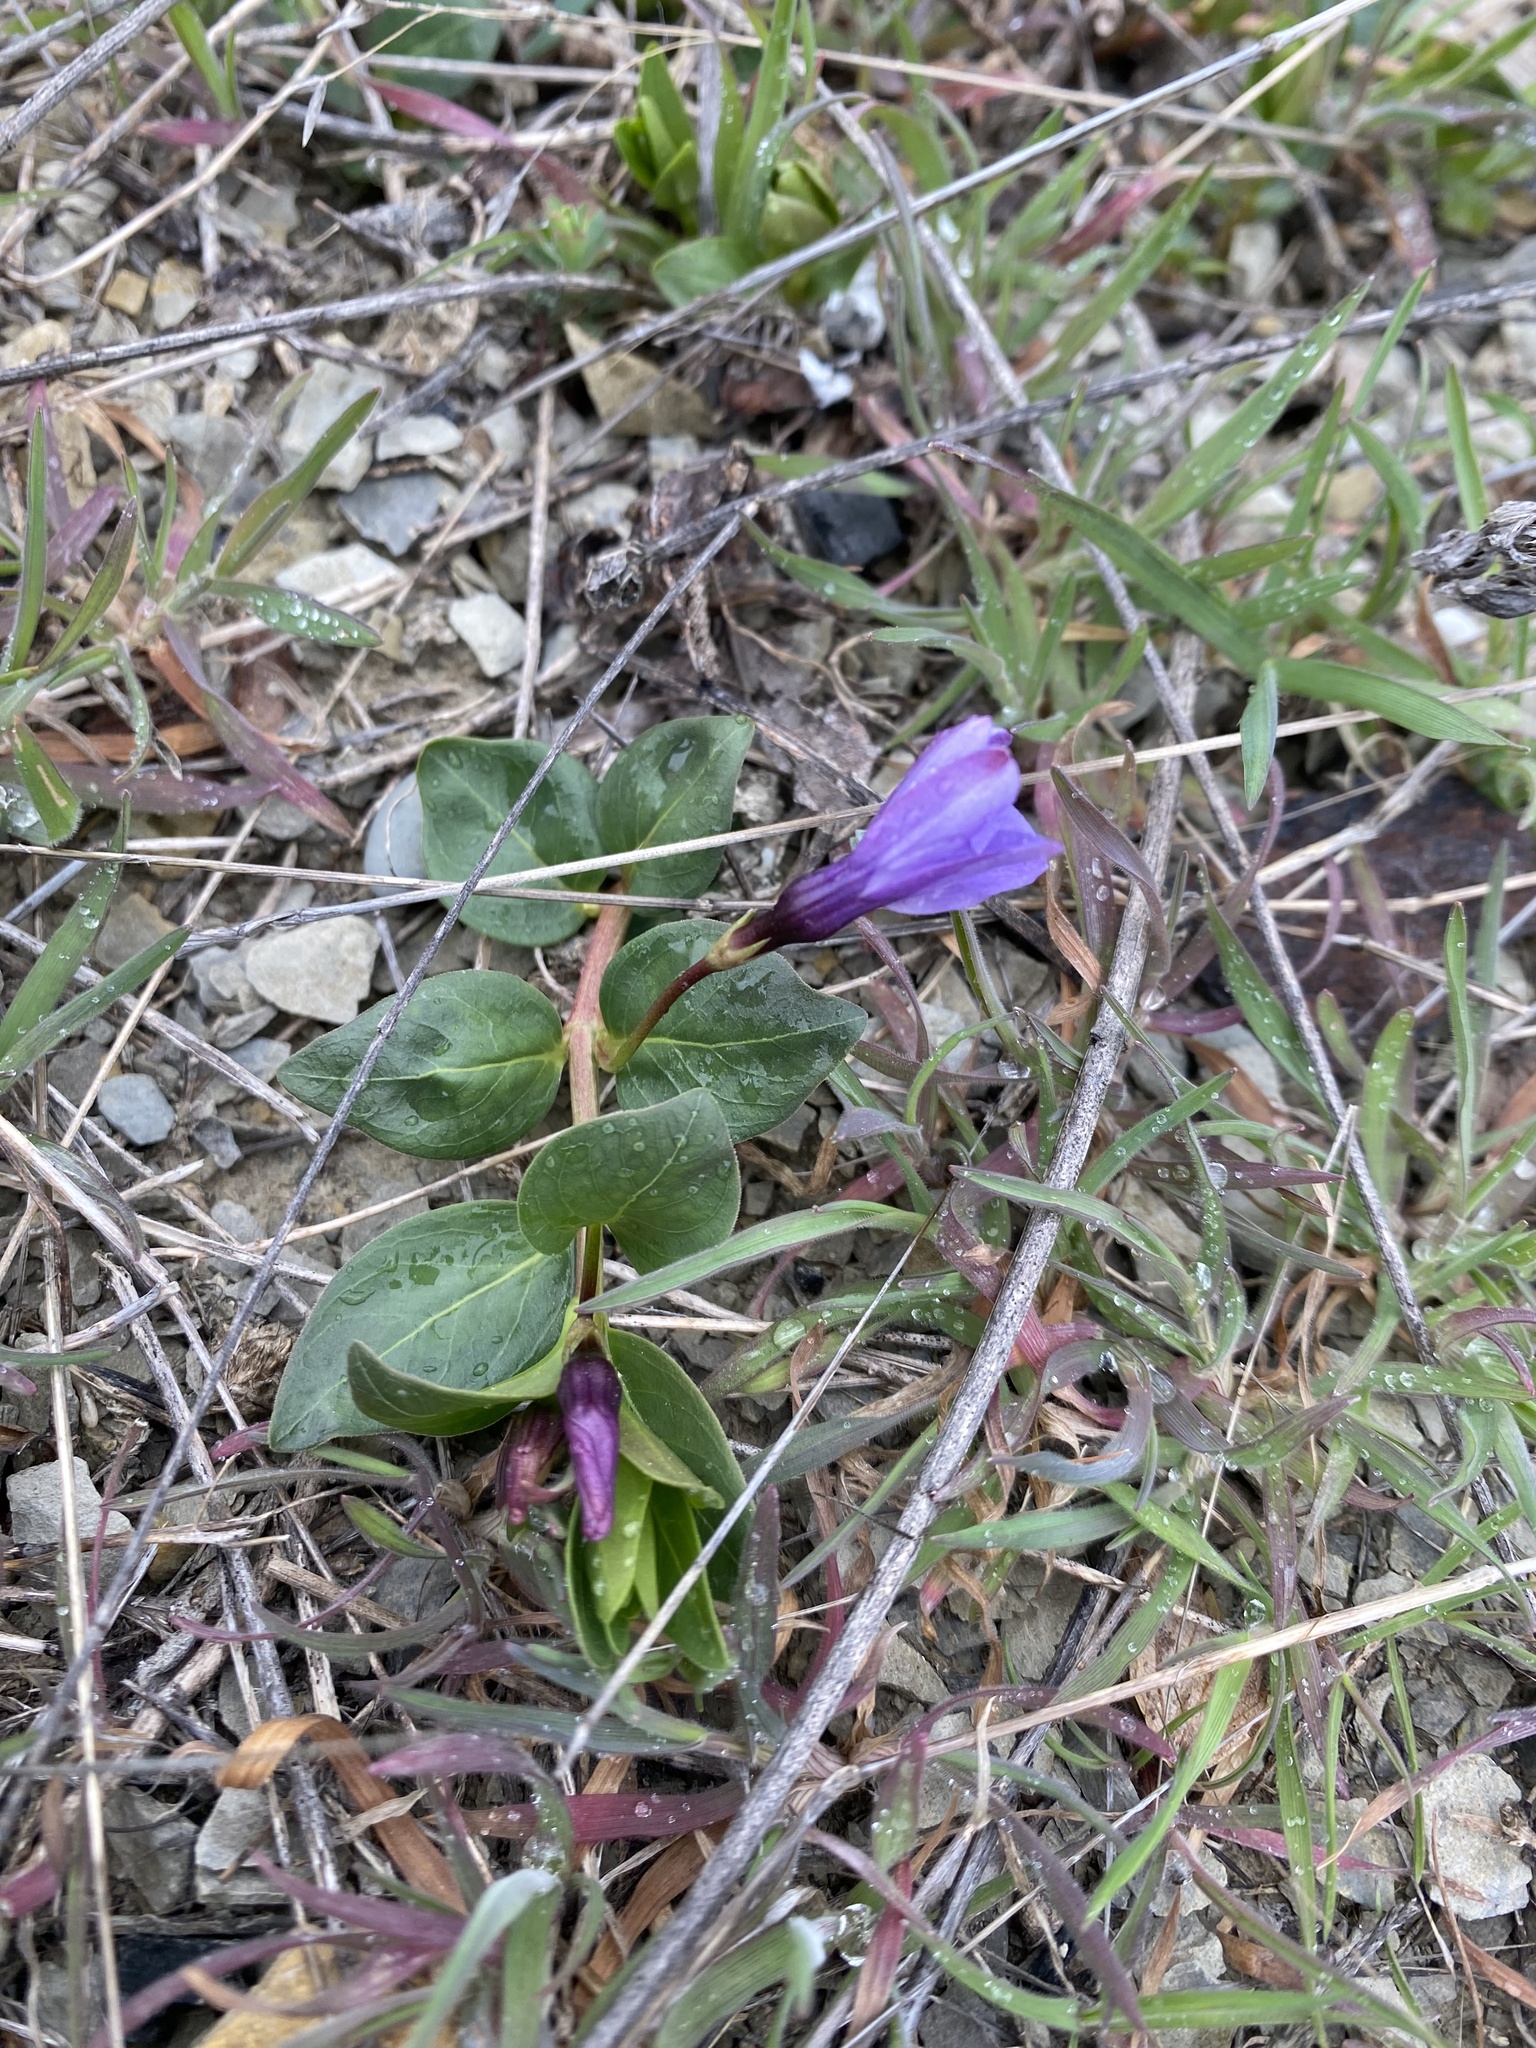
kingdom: Plantae
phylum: Tracheophyta
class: Magnoliopsida
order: Gentianales
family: Apocynaceae
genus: Vinca
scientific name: Vinca herbacea
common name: Herbaceous periwinkle
